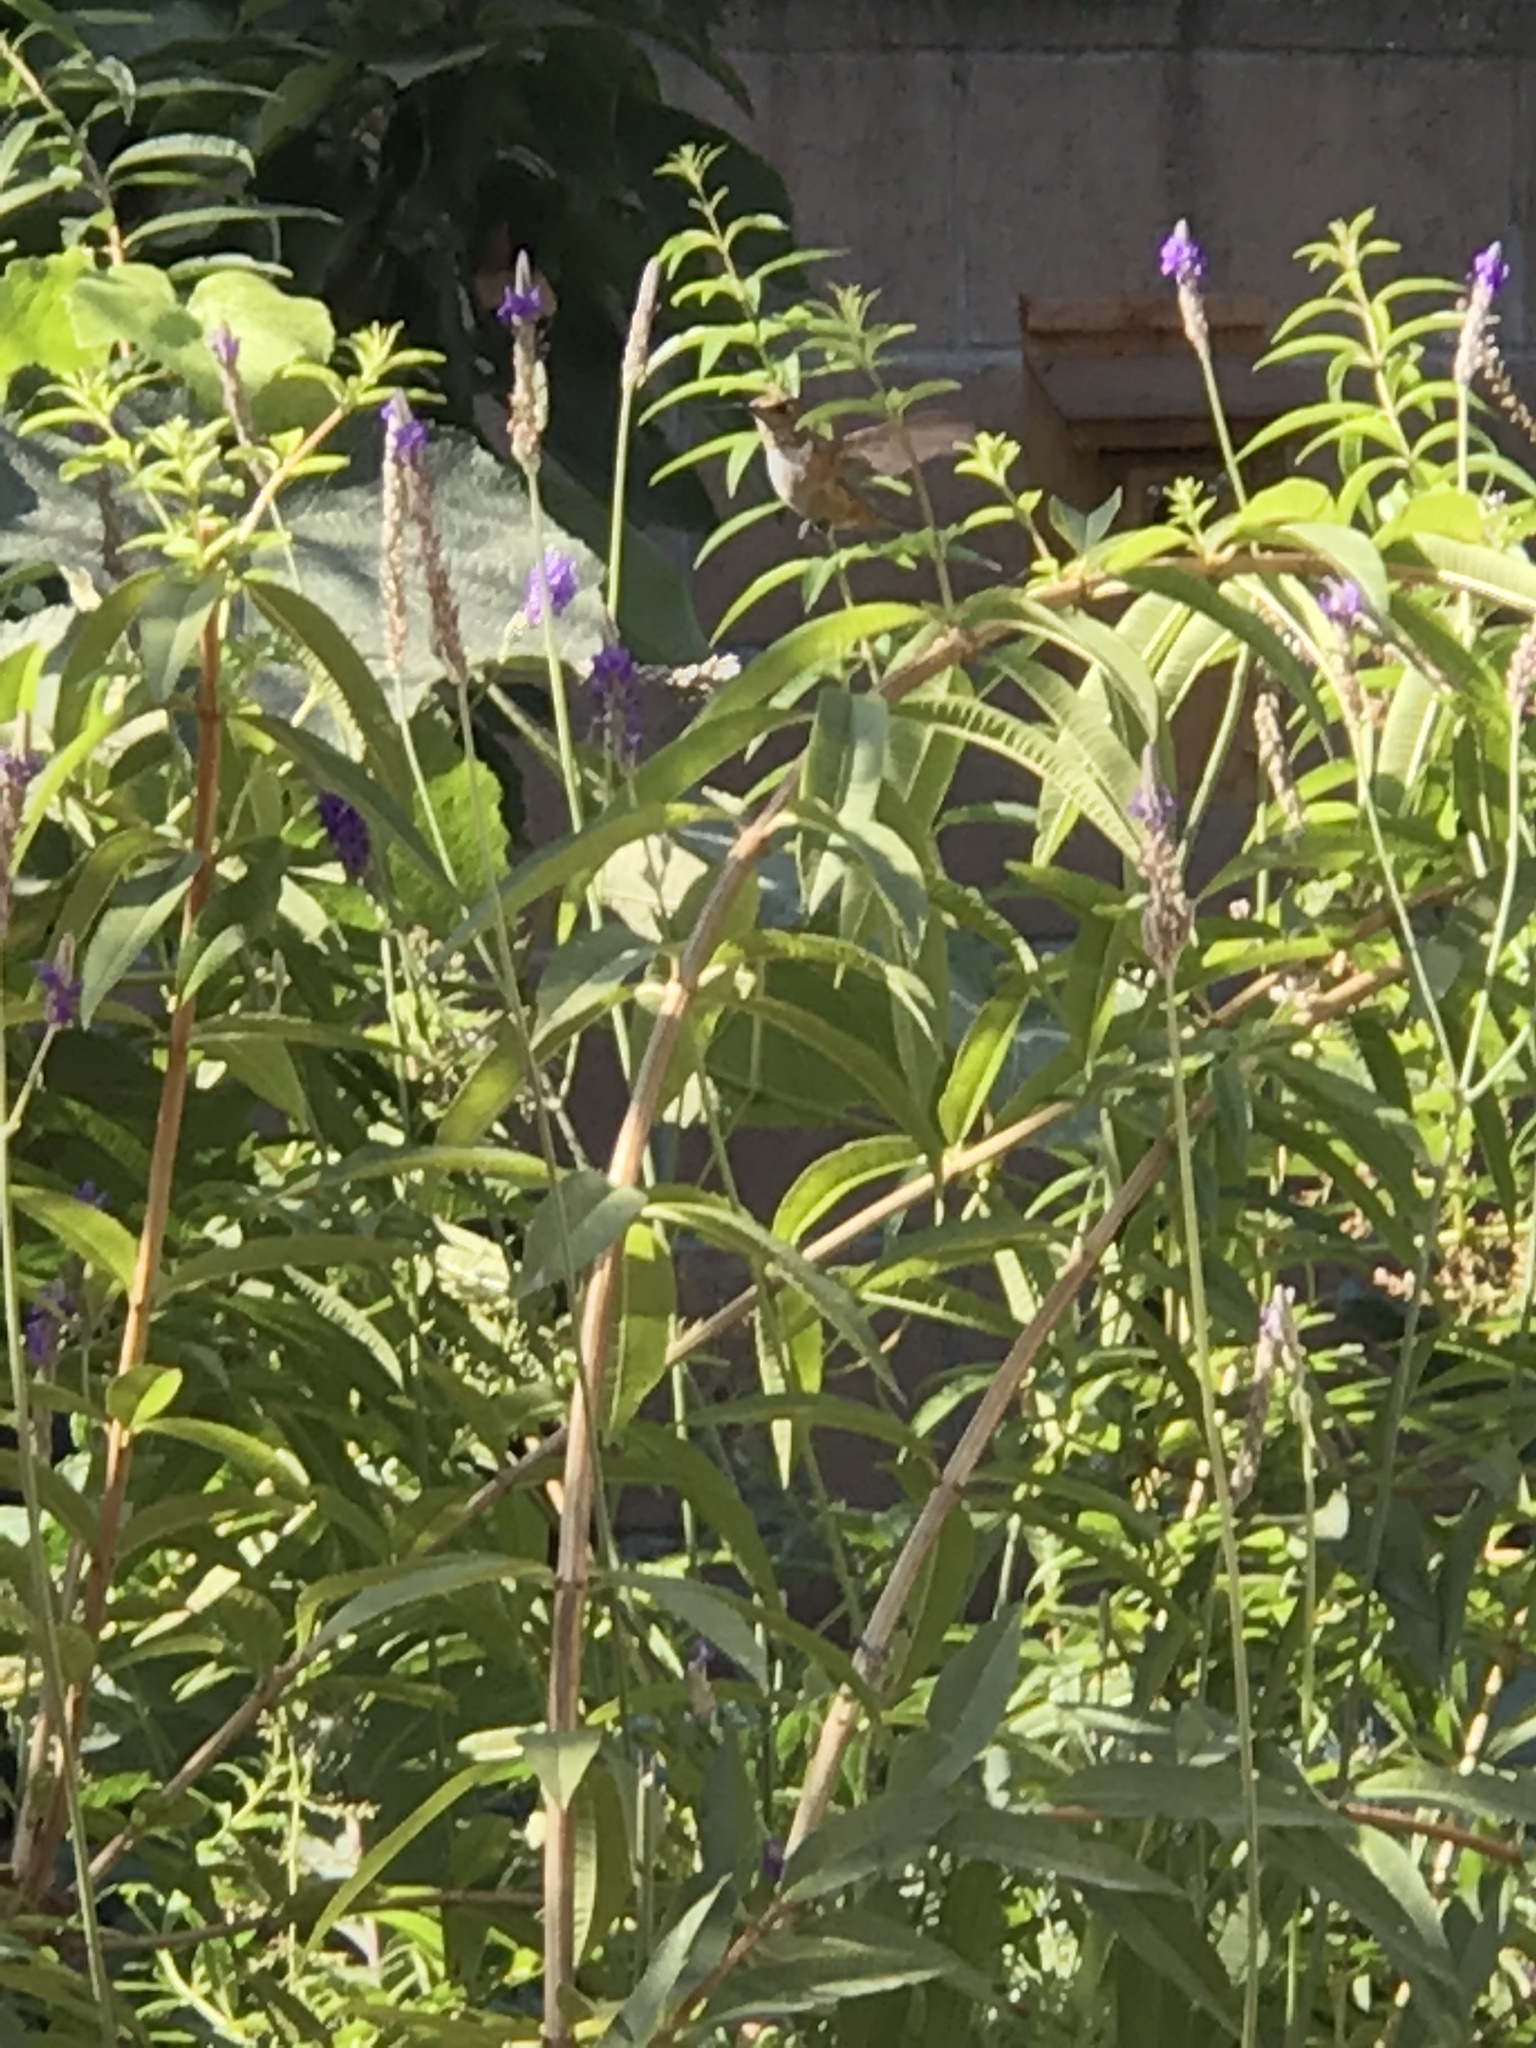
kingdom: Animalia
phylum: Chordata
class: Aves
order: Apodiformes
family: Trochilidae
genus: Selasphorus
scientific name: Selasphorus
